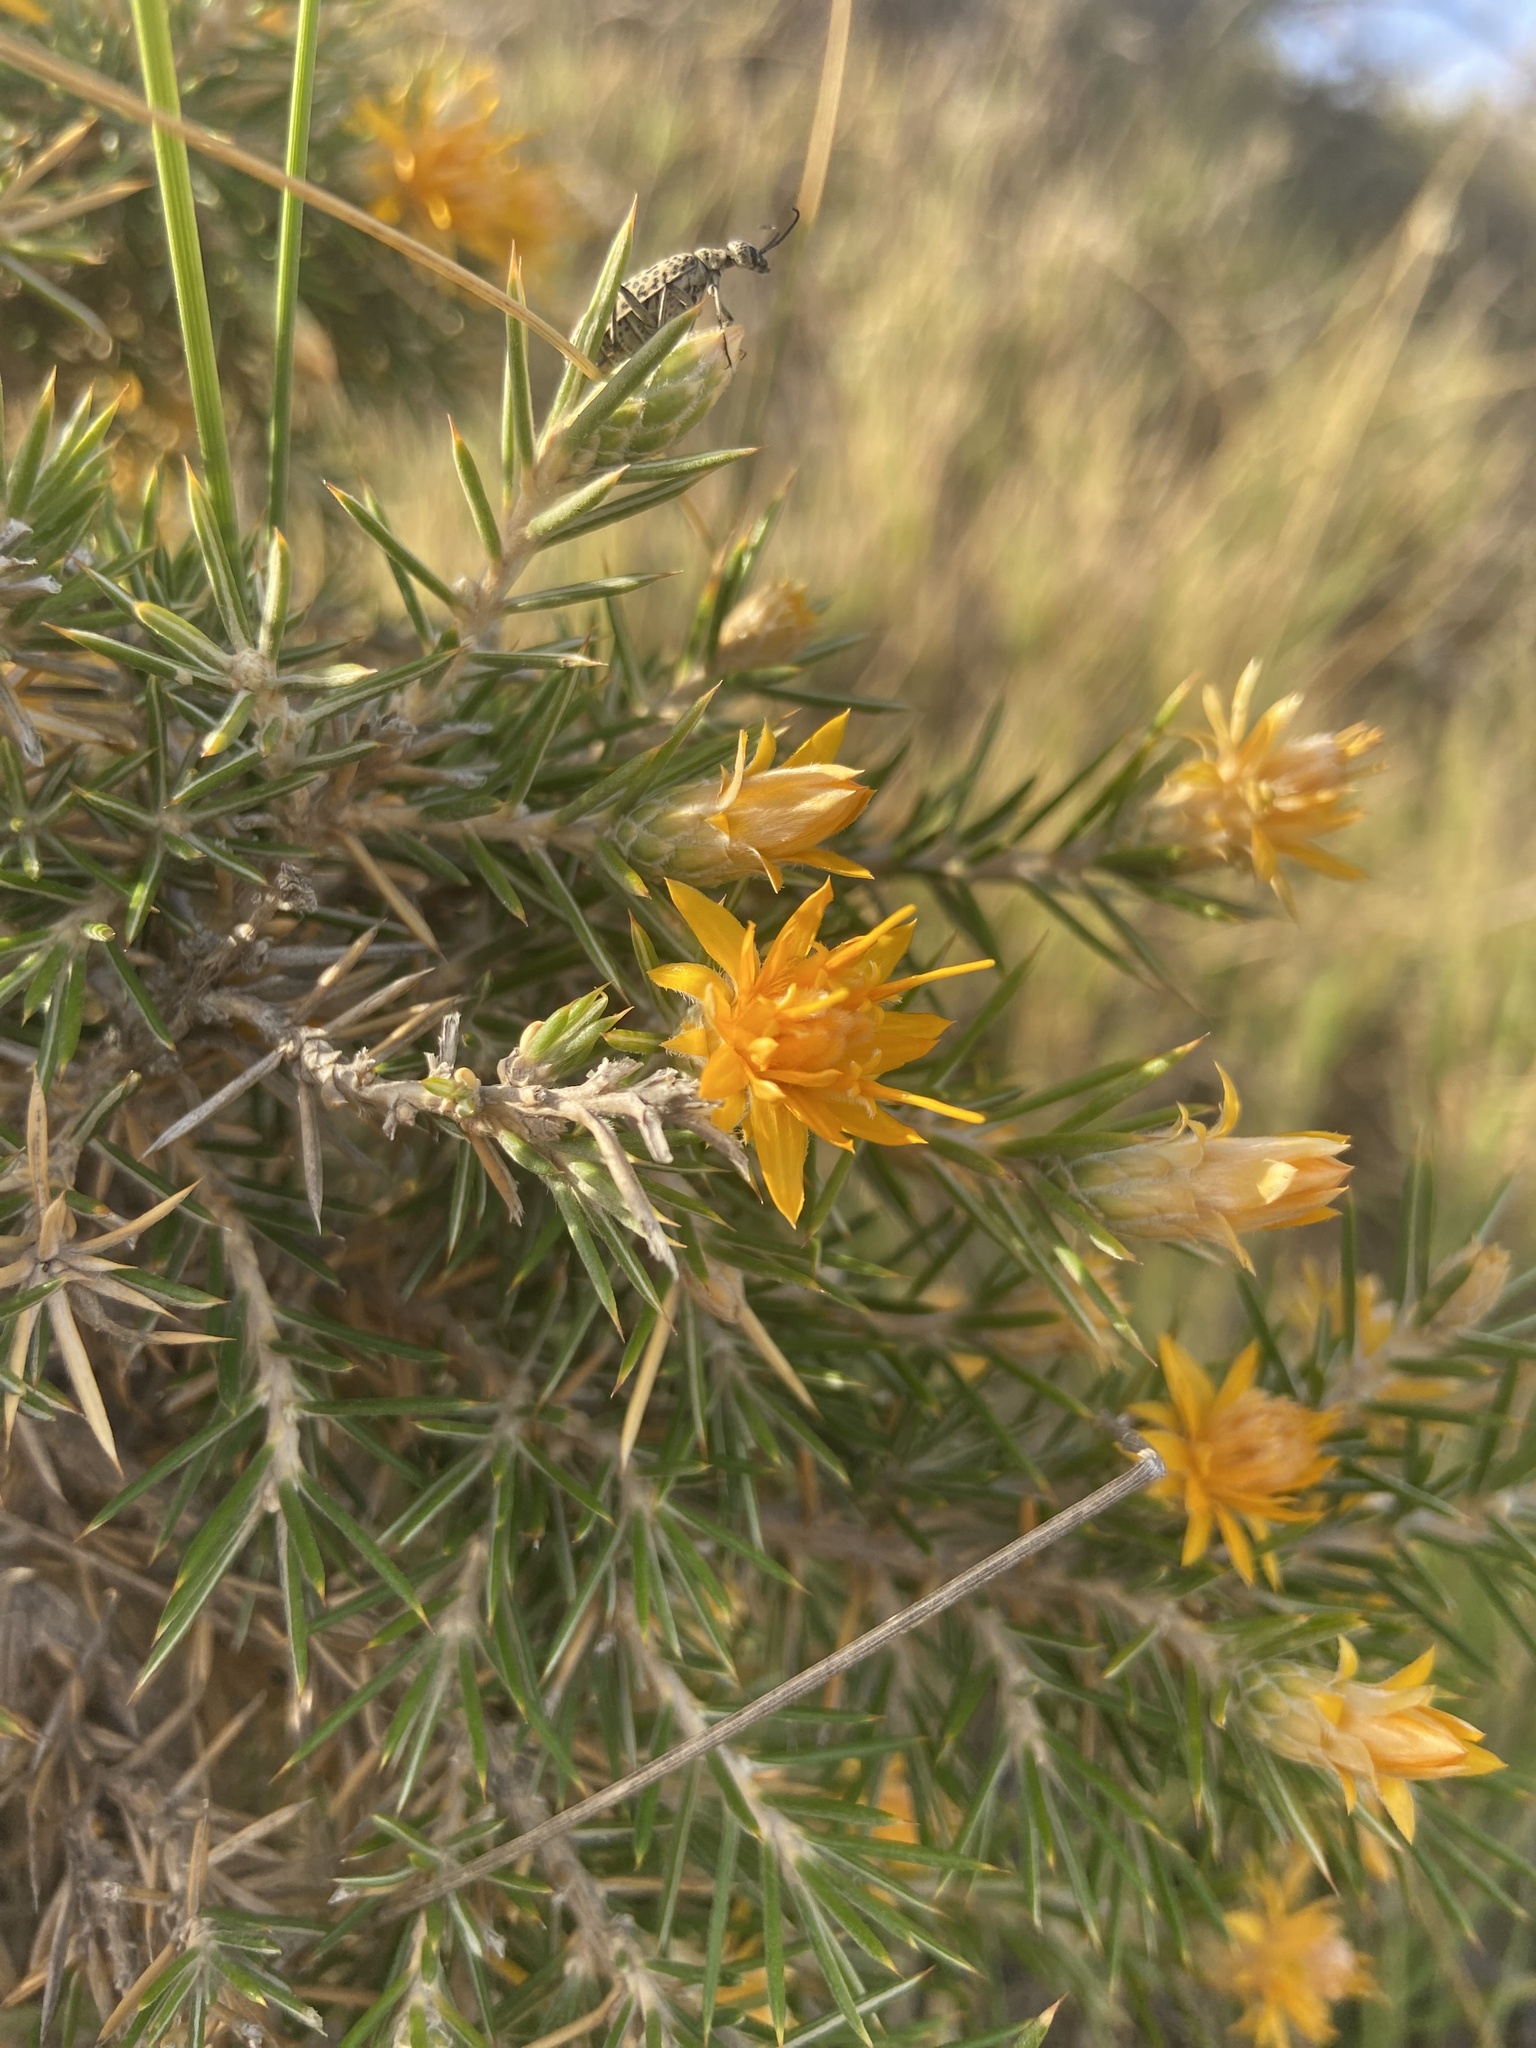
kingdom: Plantae
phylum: Tracheophyta
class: Magnoliopsida
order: Asterales
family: Asteraceae
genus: Chuquiraga
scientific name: Chuquiraga erinacea
